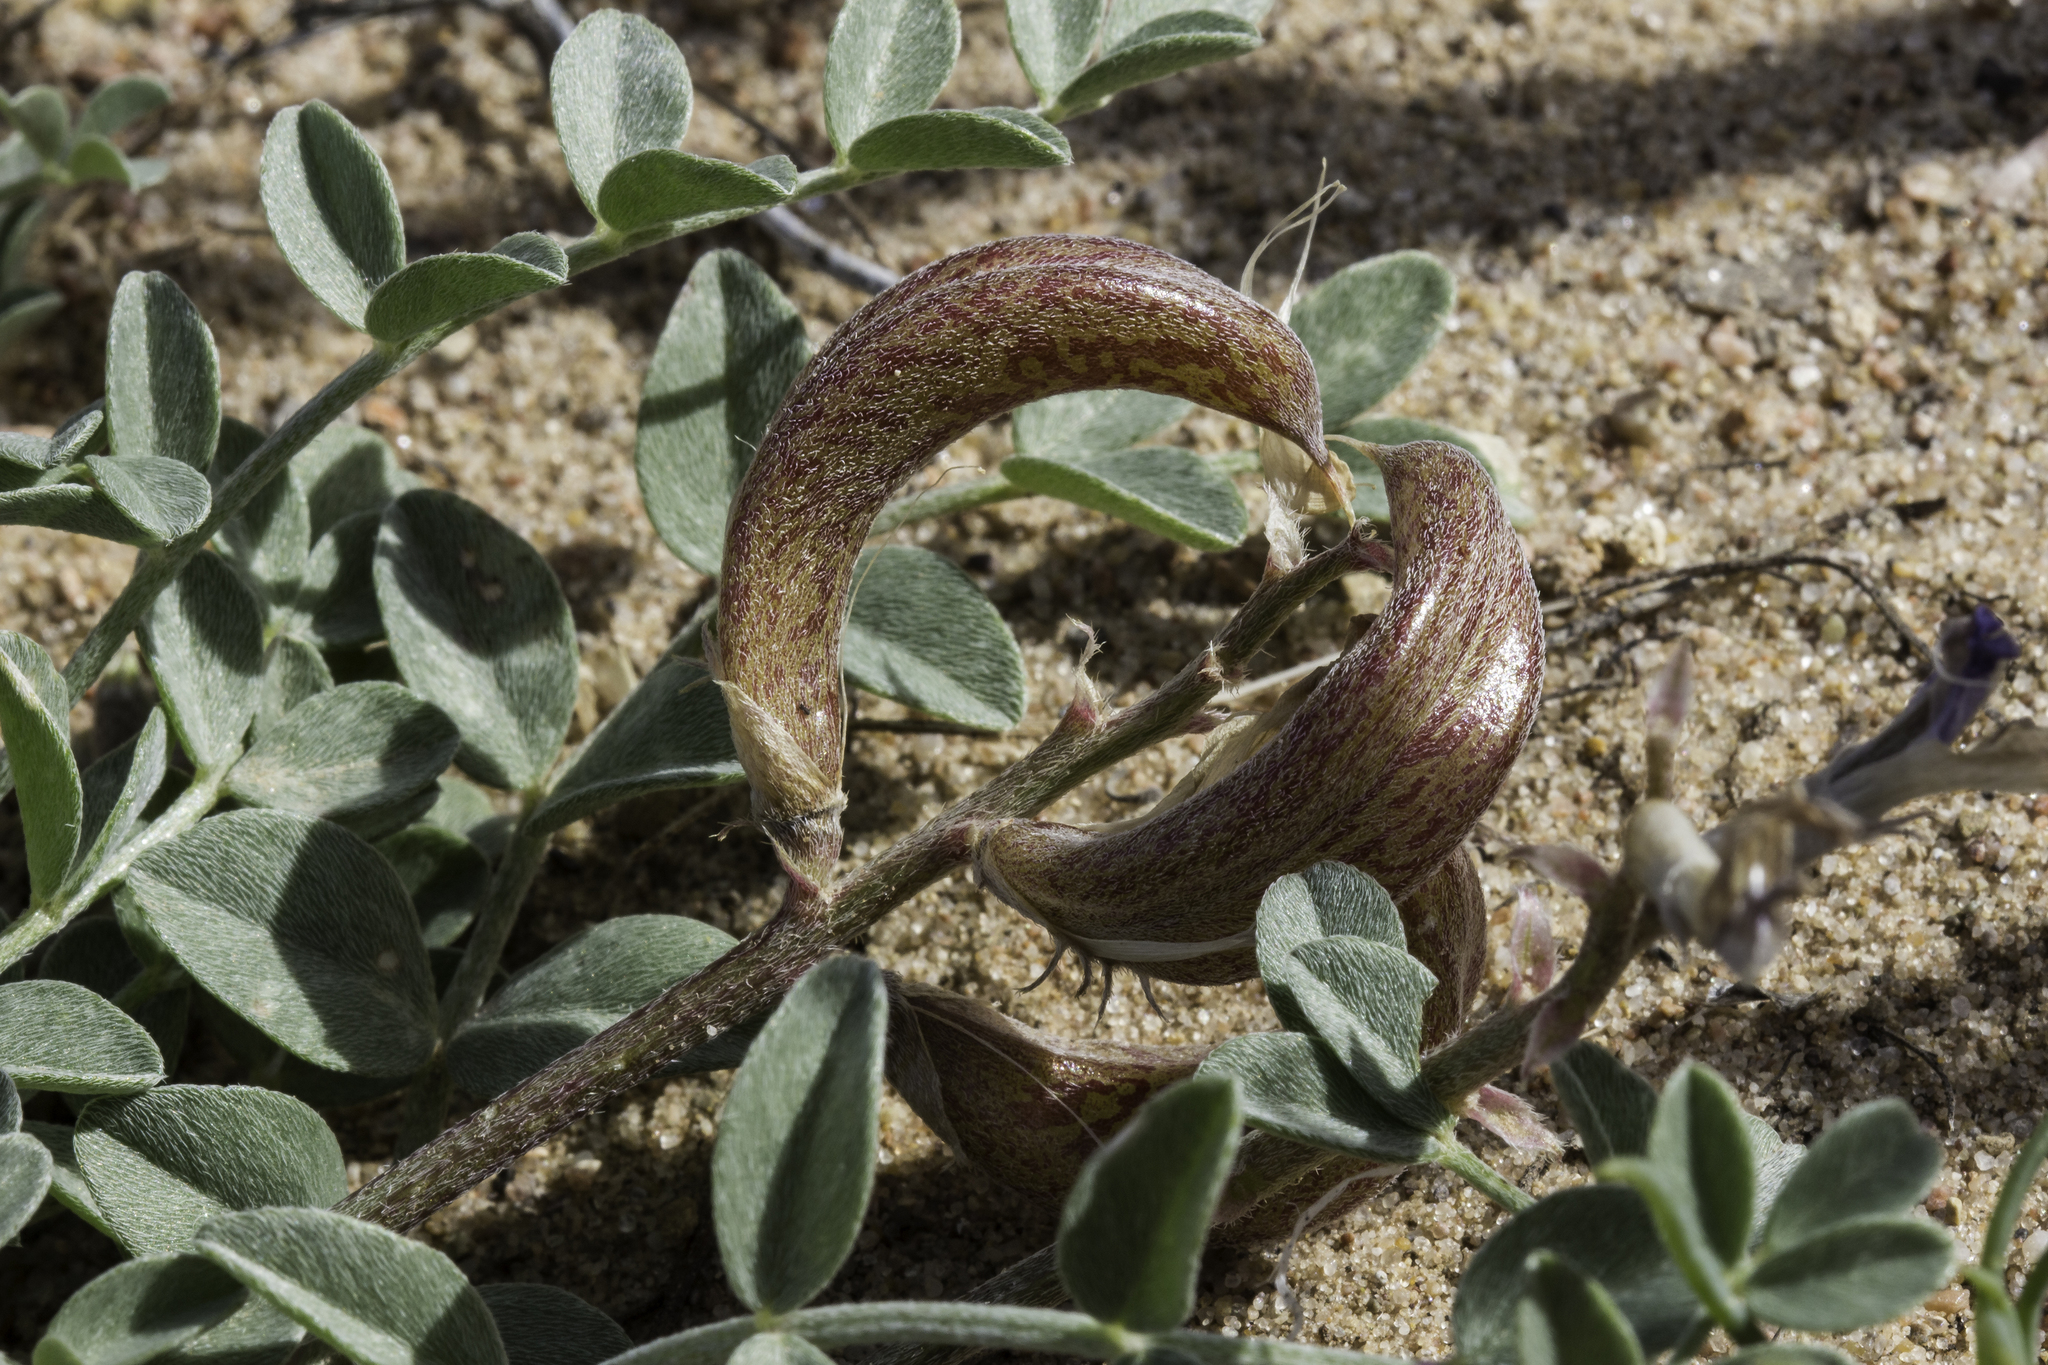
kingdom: Plantae
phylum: Tracheophyta
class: Magnoliopsida
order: Fabales
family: Fabaceae
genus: Astragalus
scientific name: Astragalus amphioxys
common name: Crescent milk-vetch
